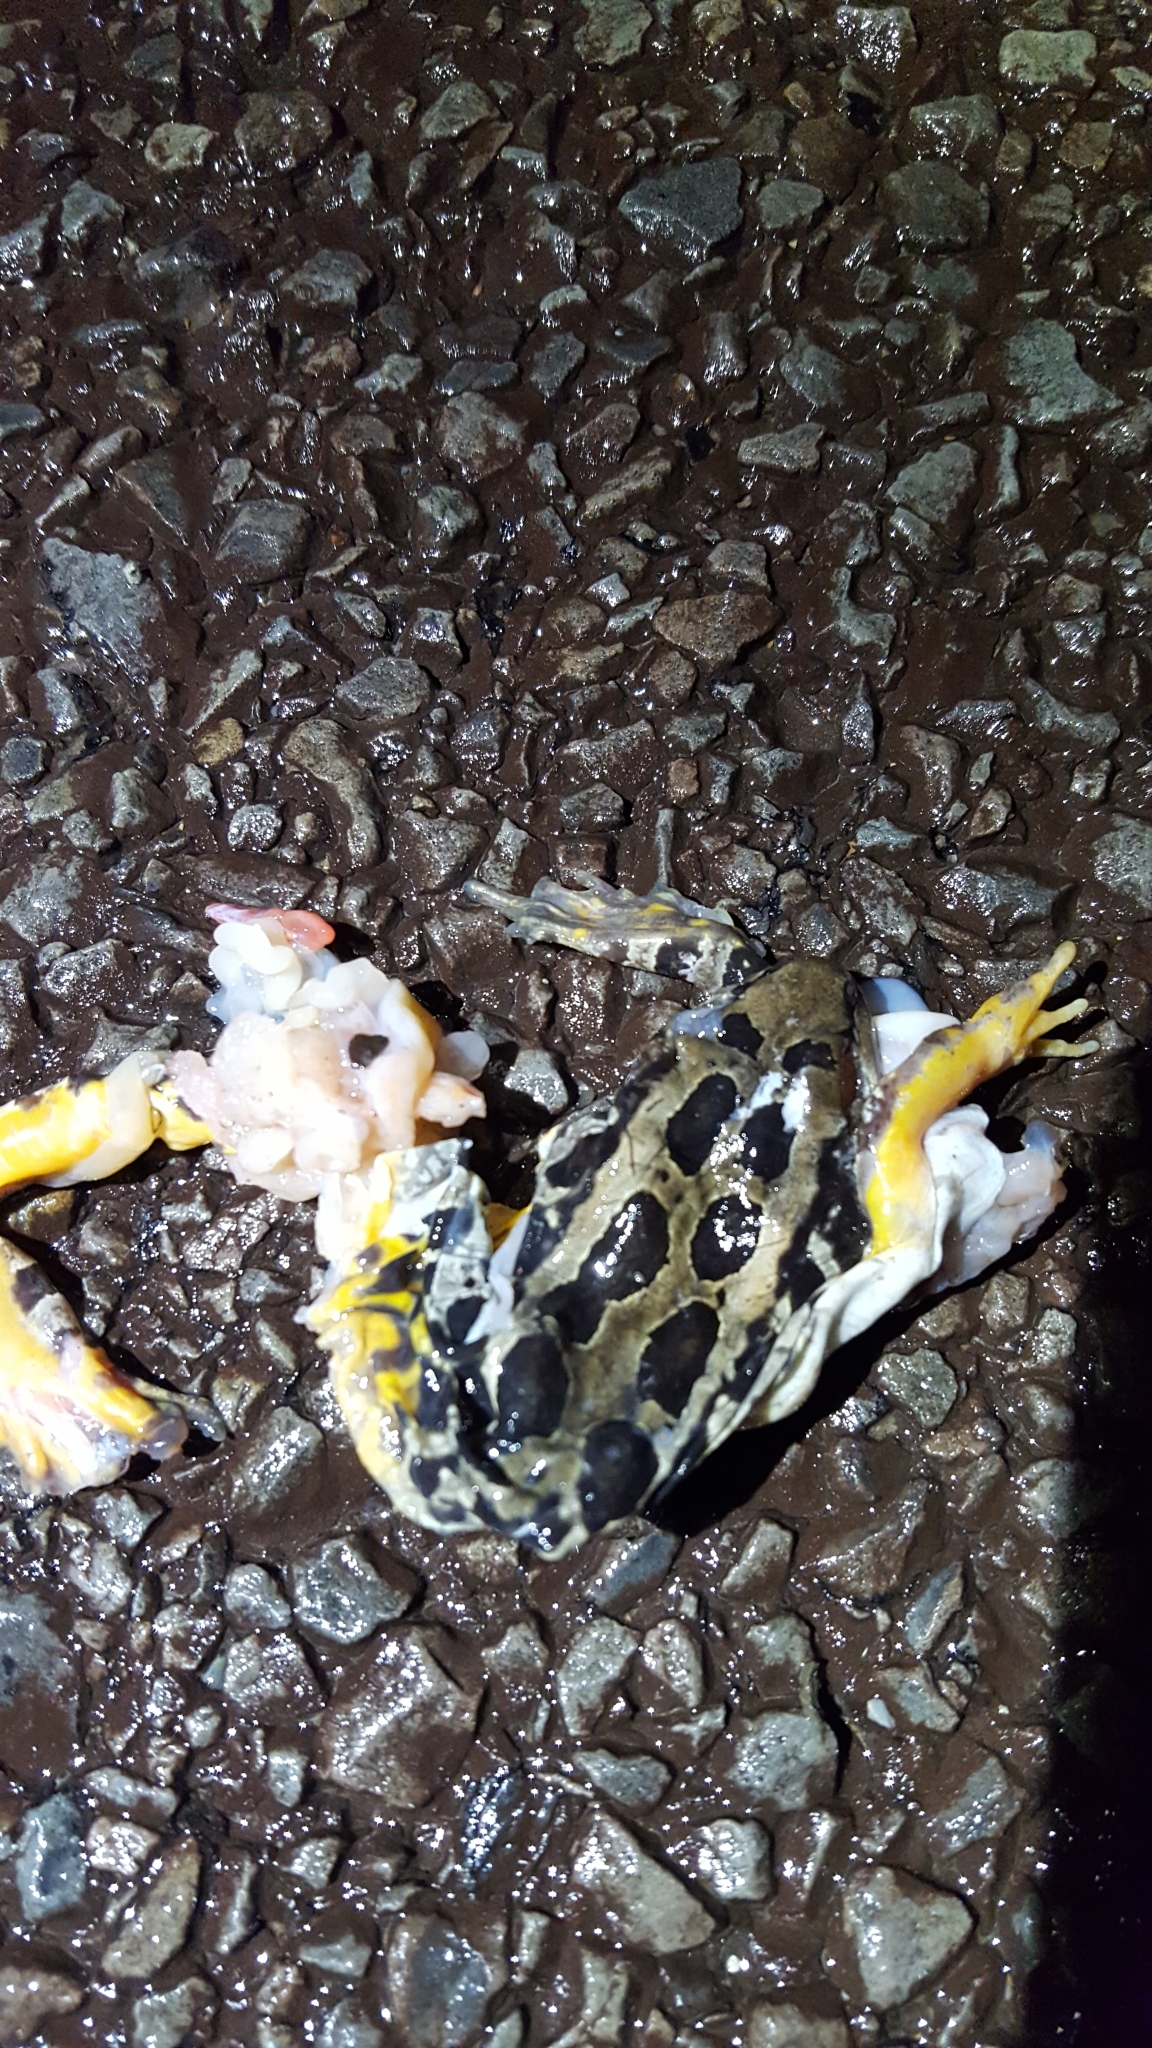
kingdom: Animalia
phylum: Chordata
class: Amphibia
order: Anura
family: Ranidae
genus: Lithobates
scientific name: Lithobates palustris
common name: Pickerel frog
